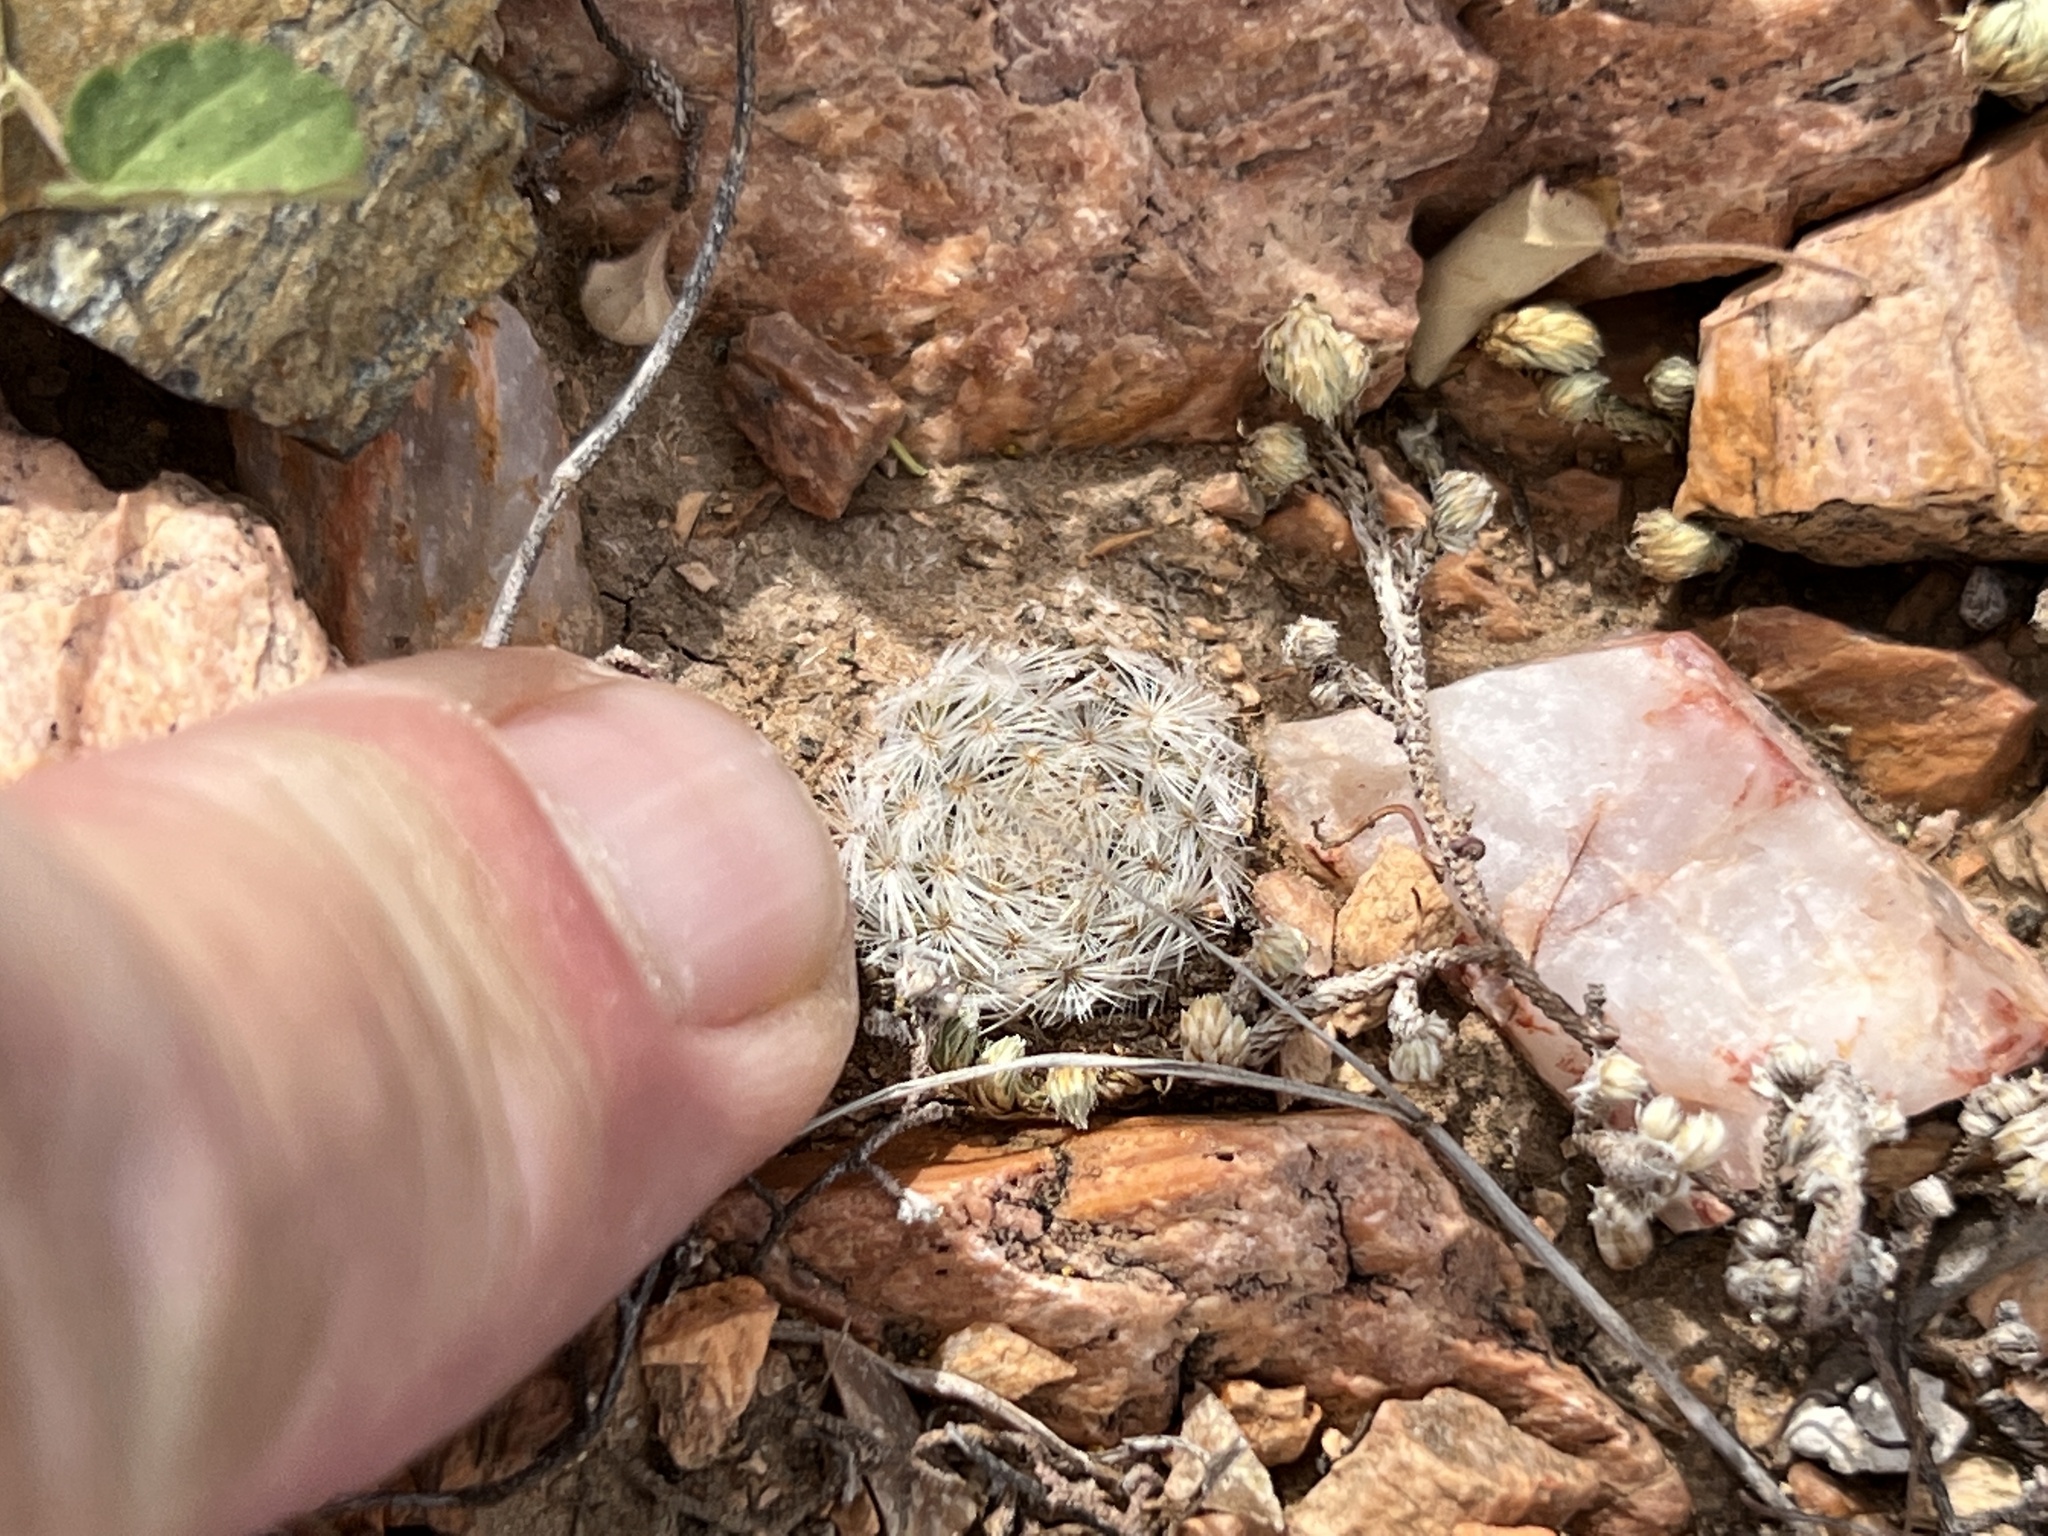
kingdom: Plantae
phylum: Tracheophyta
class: Magnoliopsida
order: Caryophyllales
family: Cactaceae
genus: Mammillaria
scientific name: Mammillaria lasiacantha
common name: Lace-spine nipple cactus
